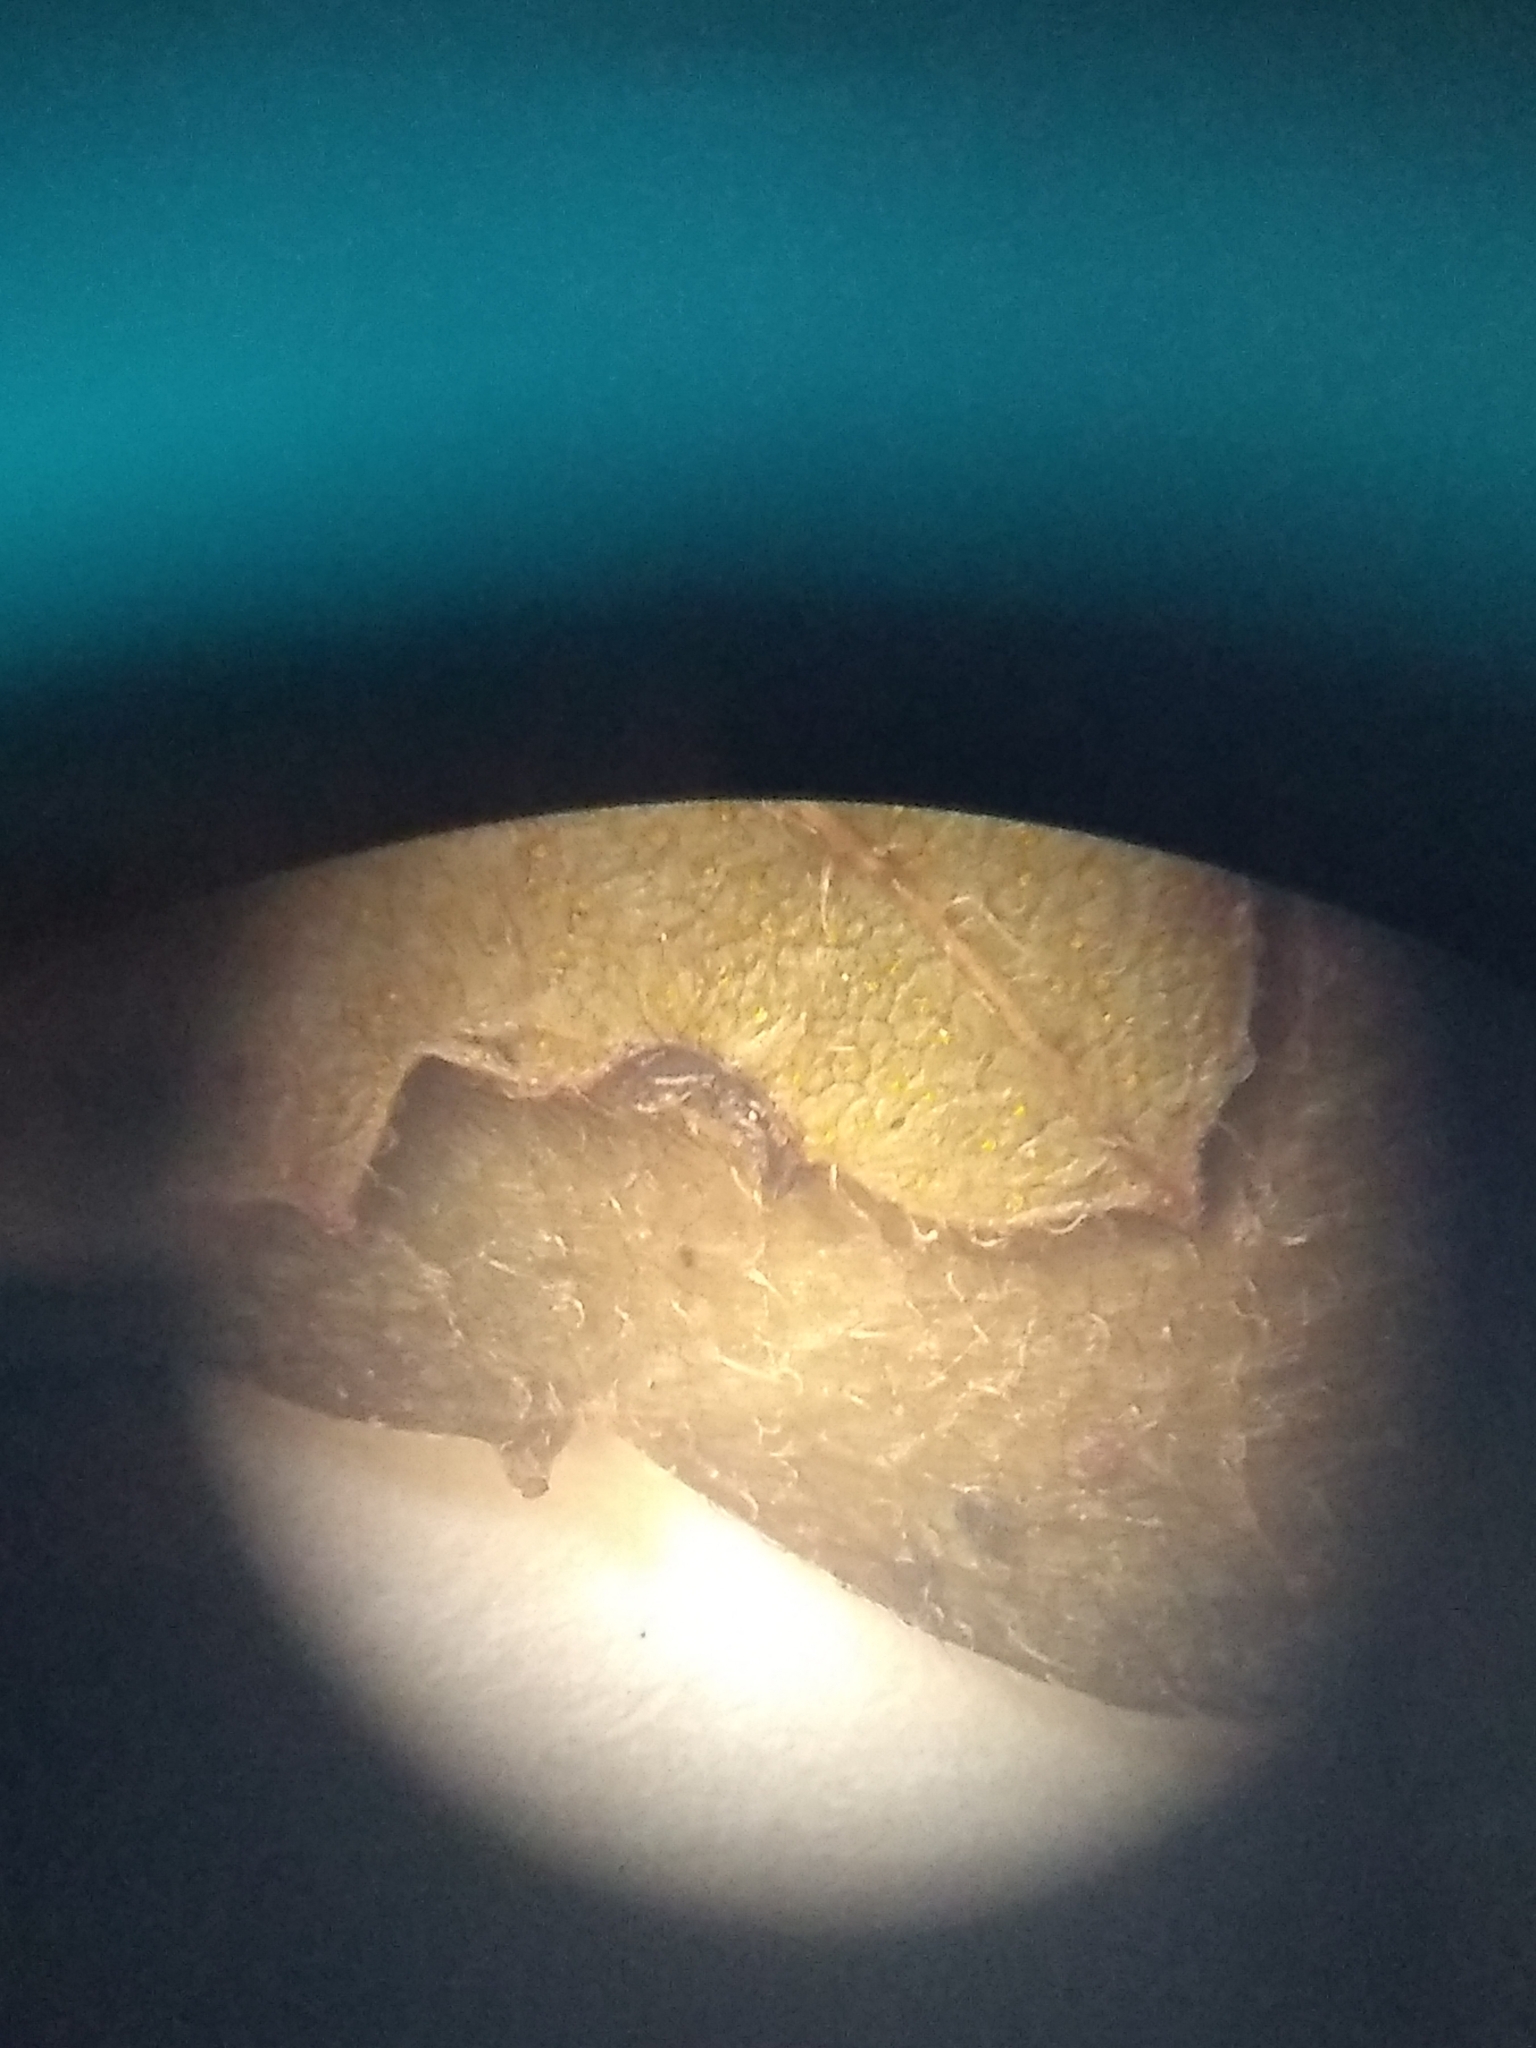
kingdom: Plantae
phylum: Tracheophyta
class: Magnoliopsida
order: Fagales
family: Myricaceae
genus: Morella
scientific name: Morella pensylvanica
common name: Northern bayberry
